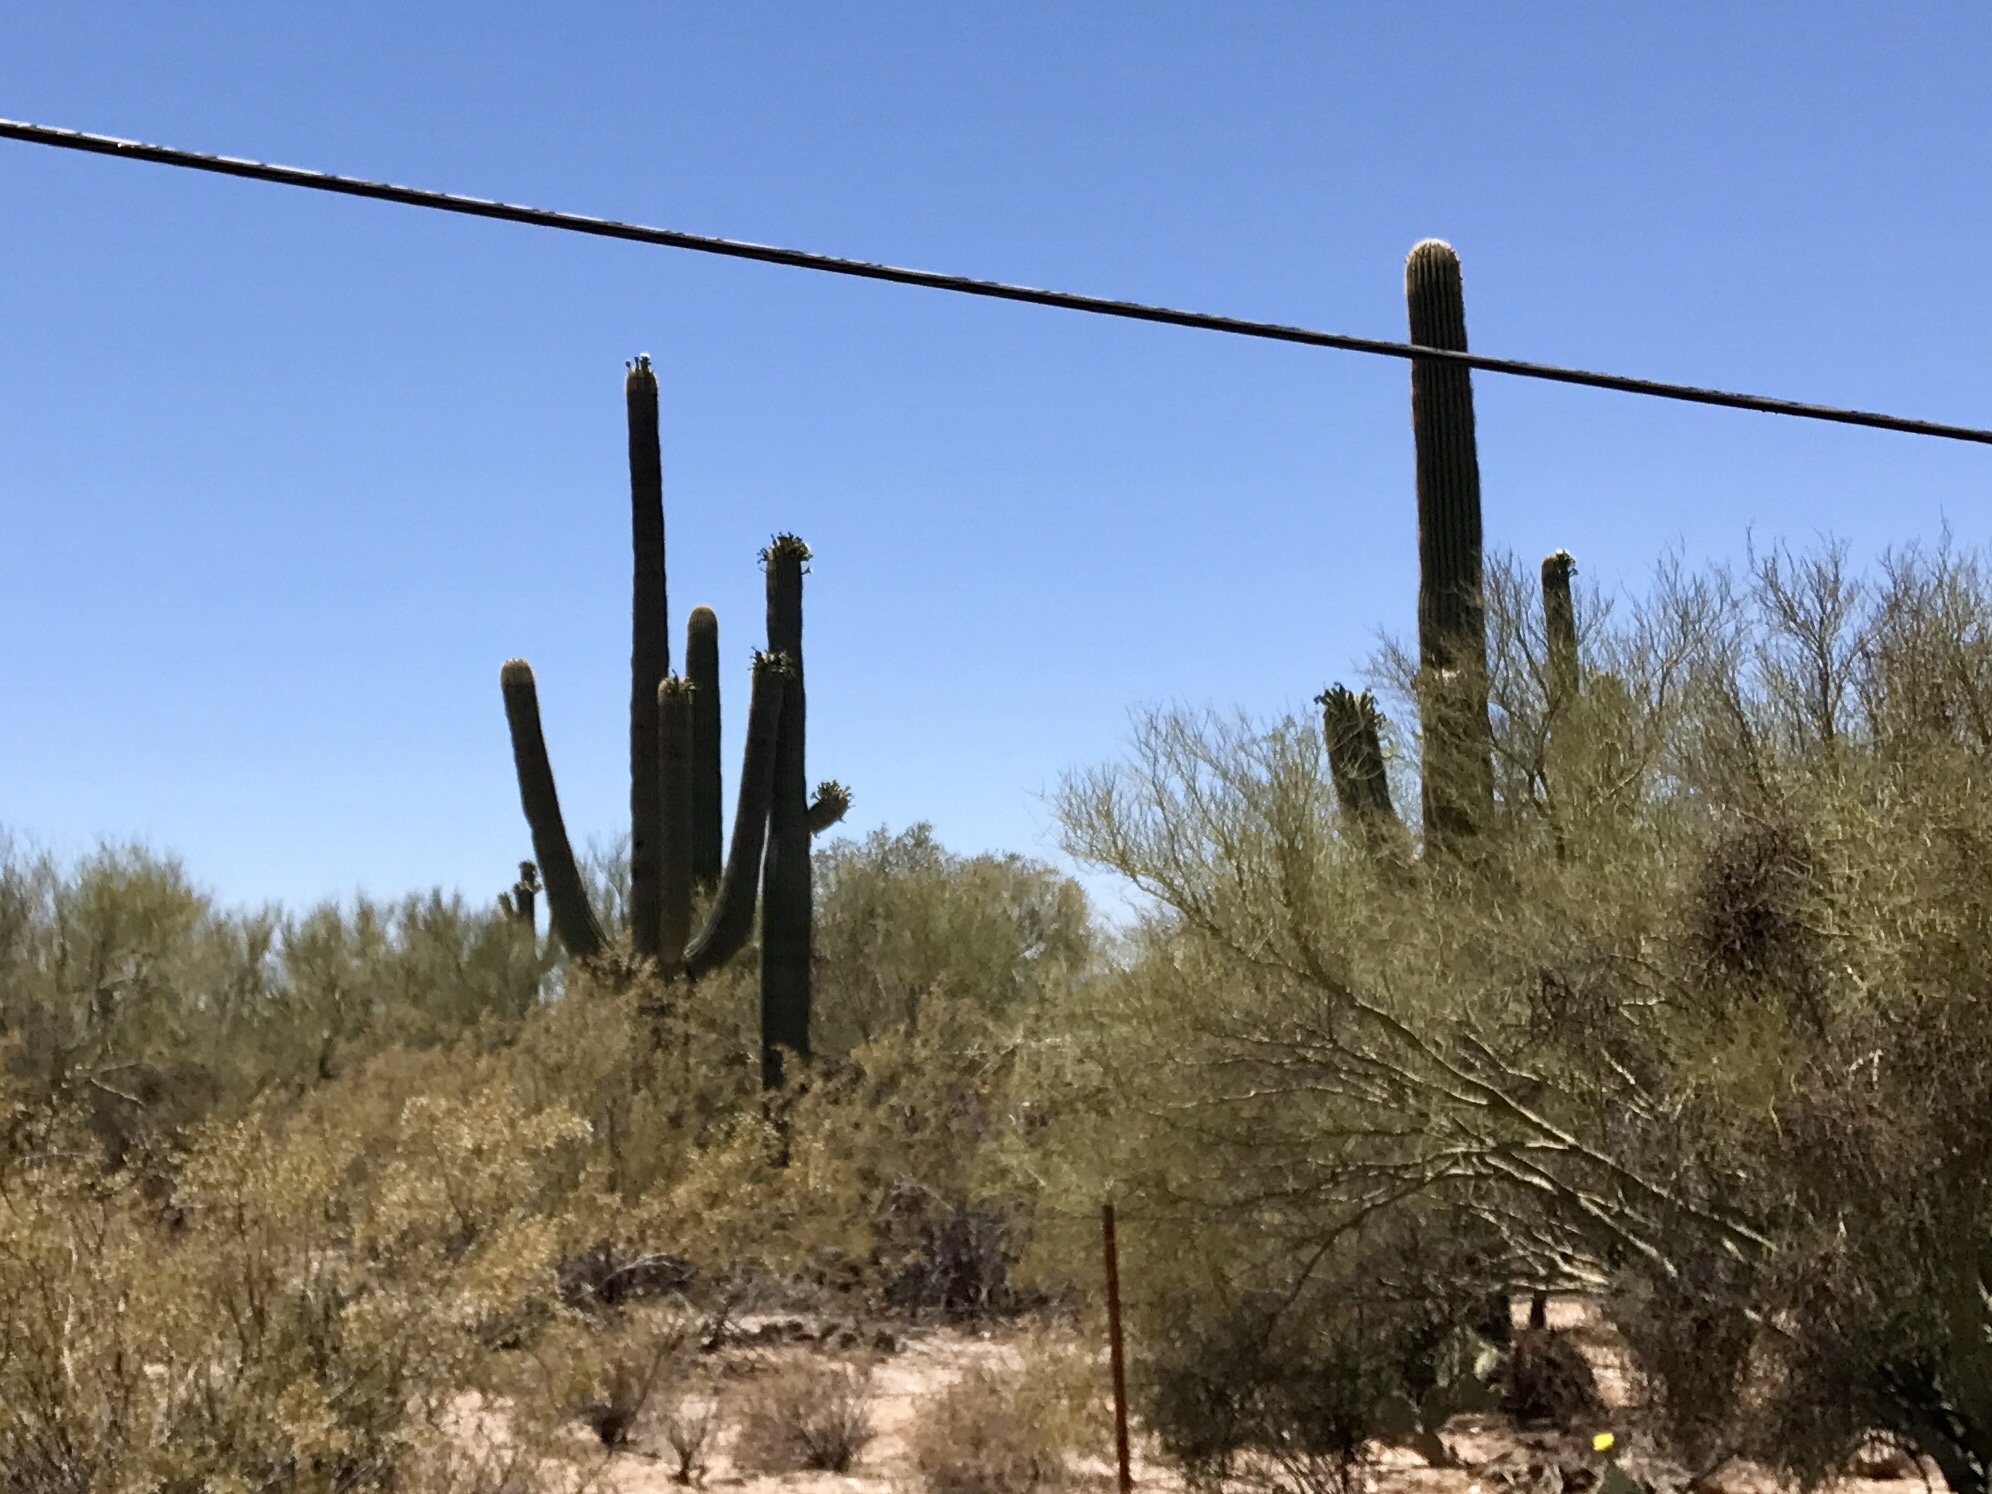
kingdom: Plantae
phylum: Tracheophyta
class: Magnoliopsida
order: Caryophyllales
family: Cactaceae
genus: Carnegiea
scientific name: Carnegiea gigantea
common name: Saguaro
